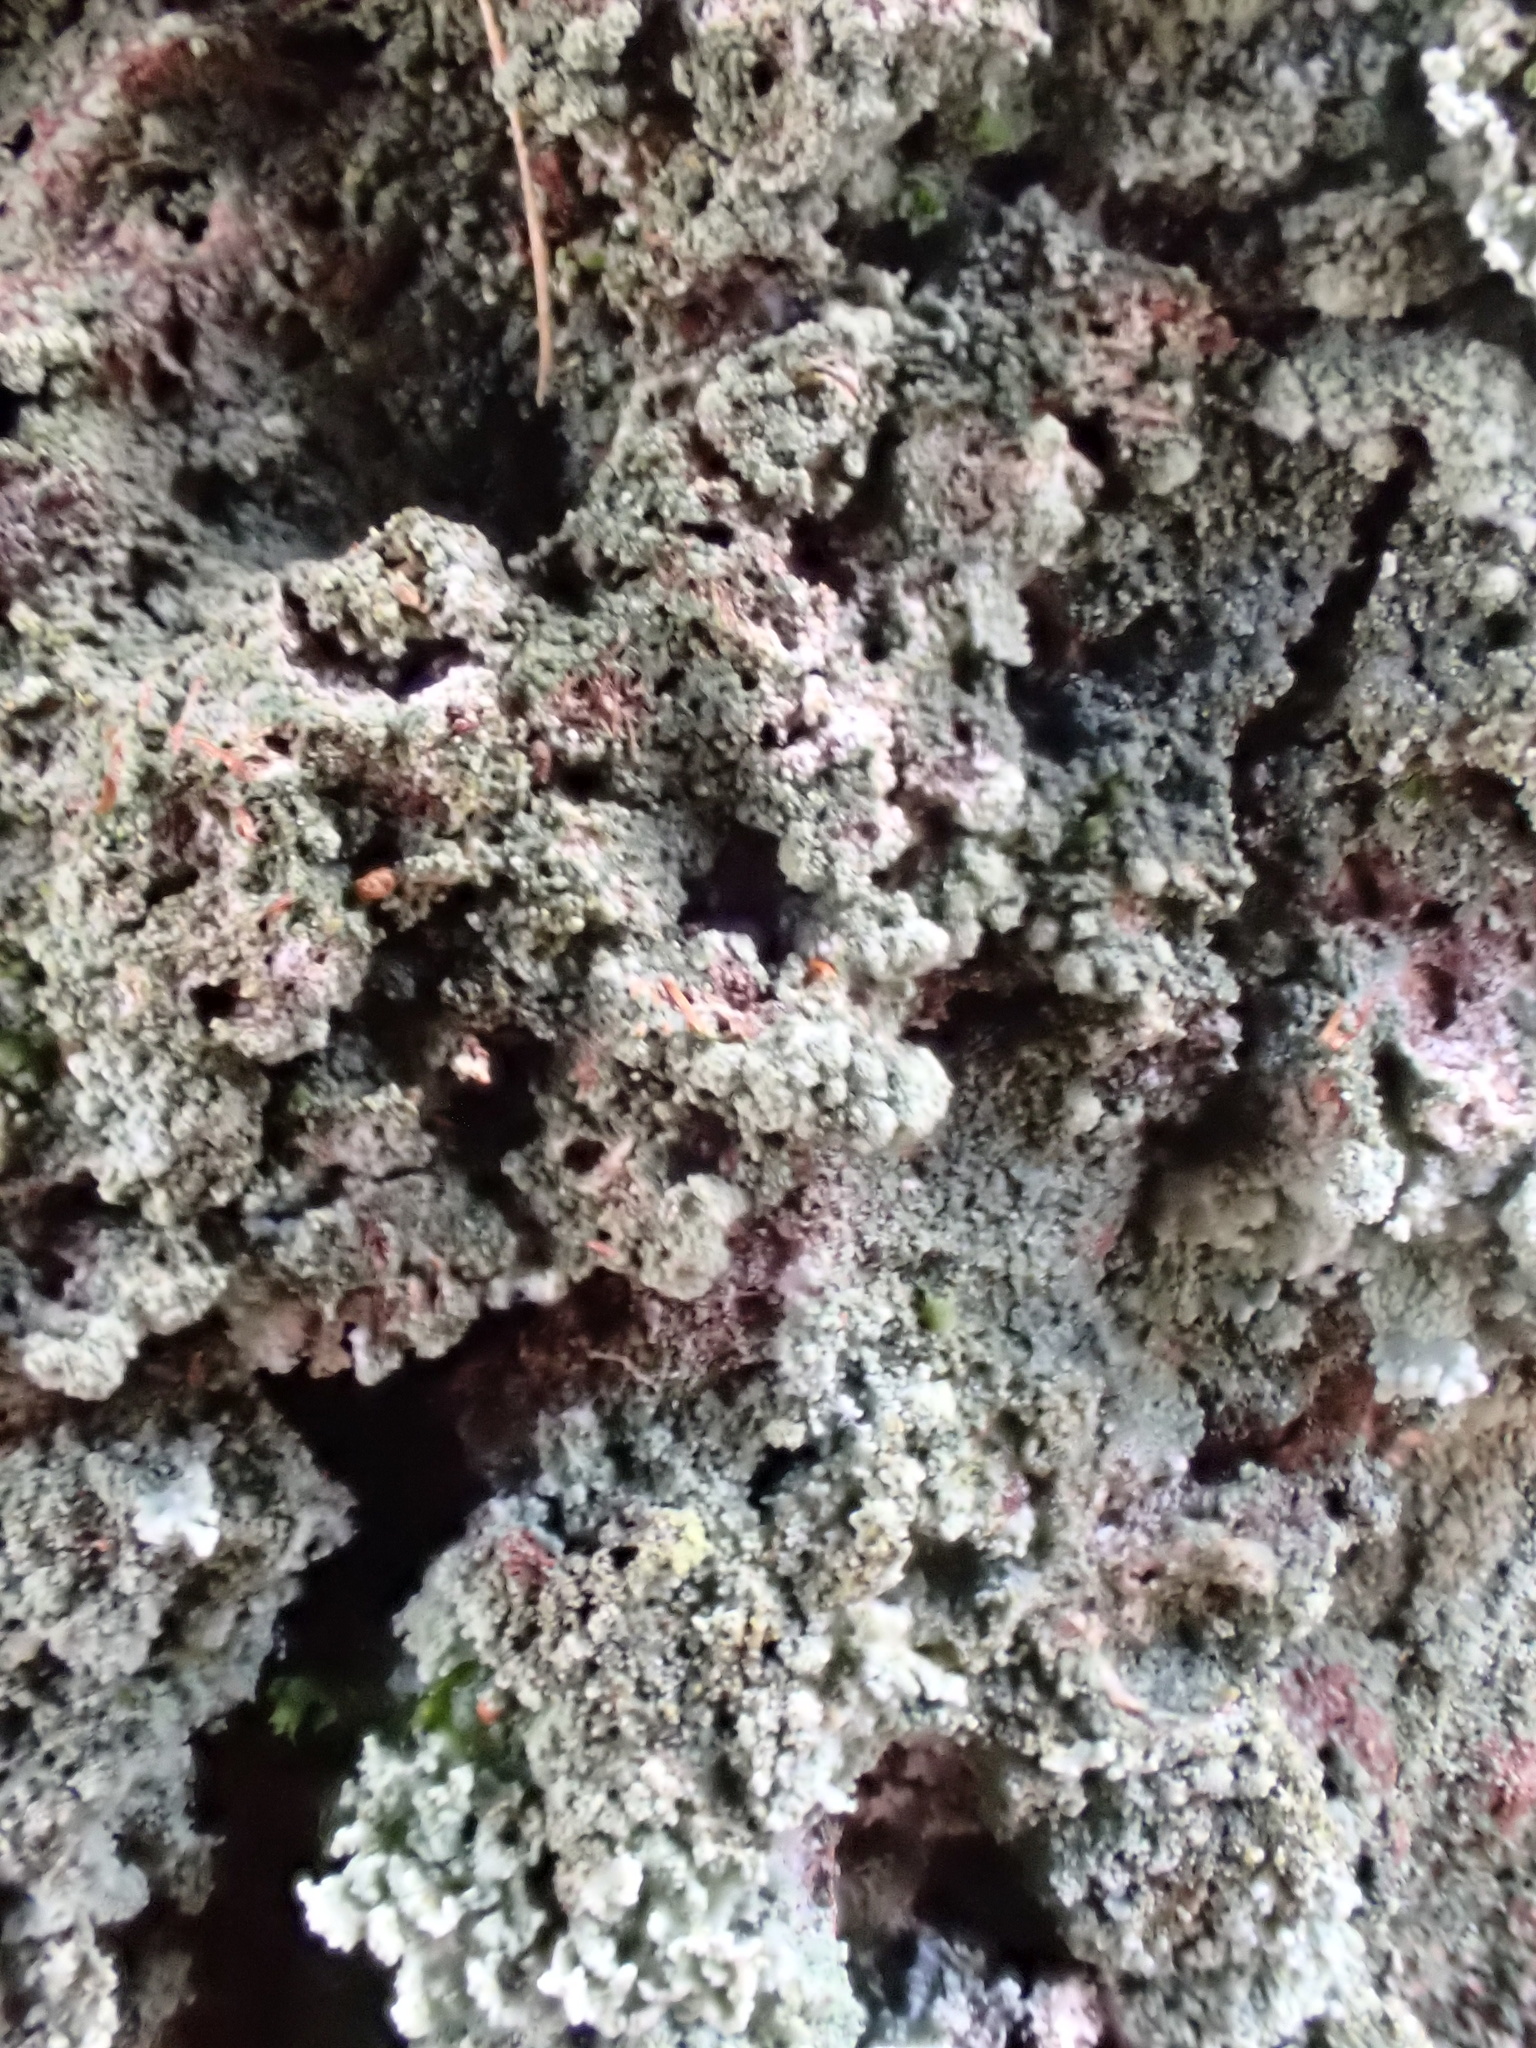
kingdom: Fungi
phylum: Ascomycota
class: Coniocybomycetes
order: Coniocybales
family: Coniocybaceae
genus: Chaenotheca
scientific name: Chaenotheca ferruginea
